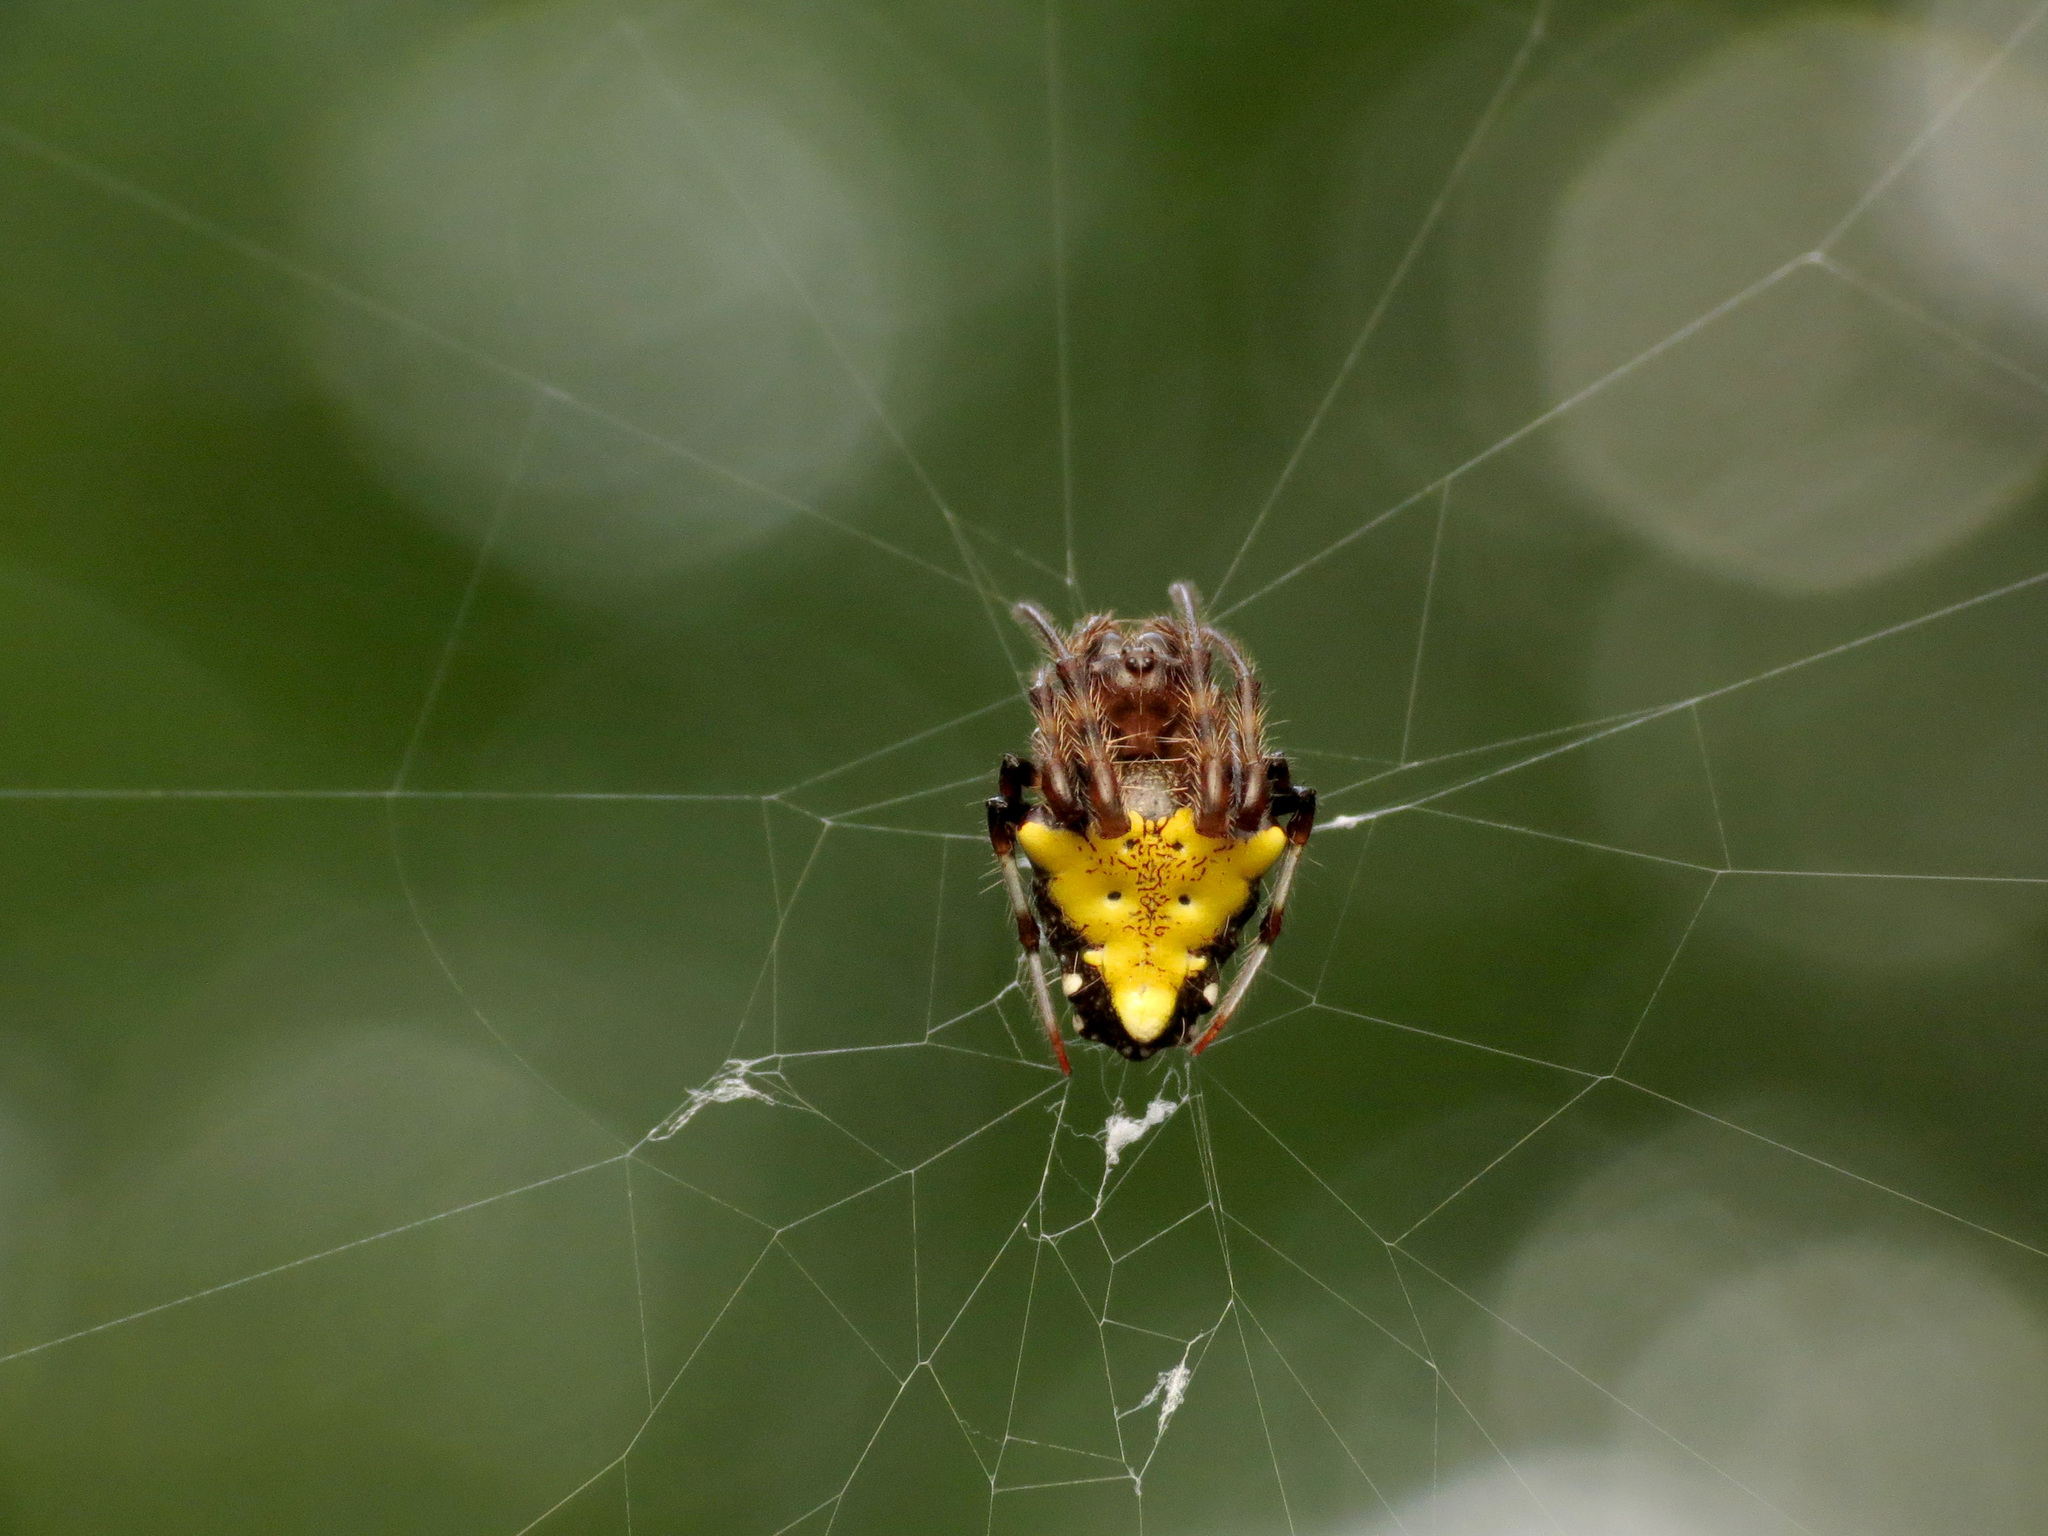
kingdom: Animalia
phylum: Arthropoda
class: Arachnida
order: Araneae
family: Araneidae
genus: Verrucosa
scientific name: Verrucosa arenata
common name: Orb weavers
